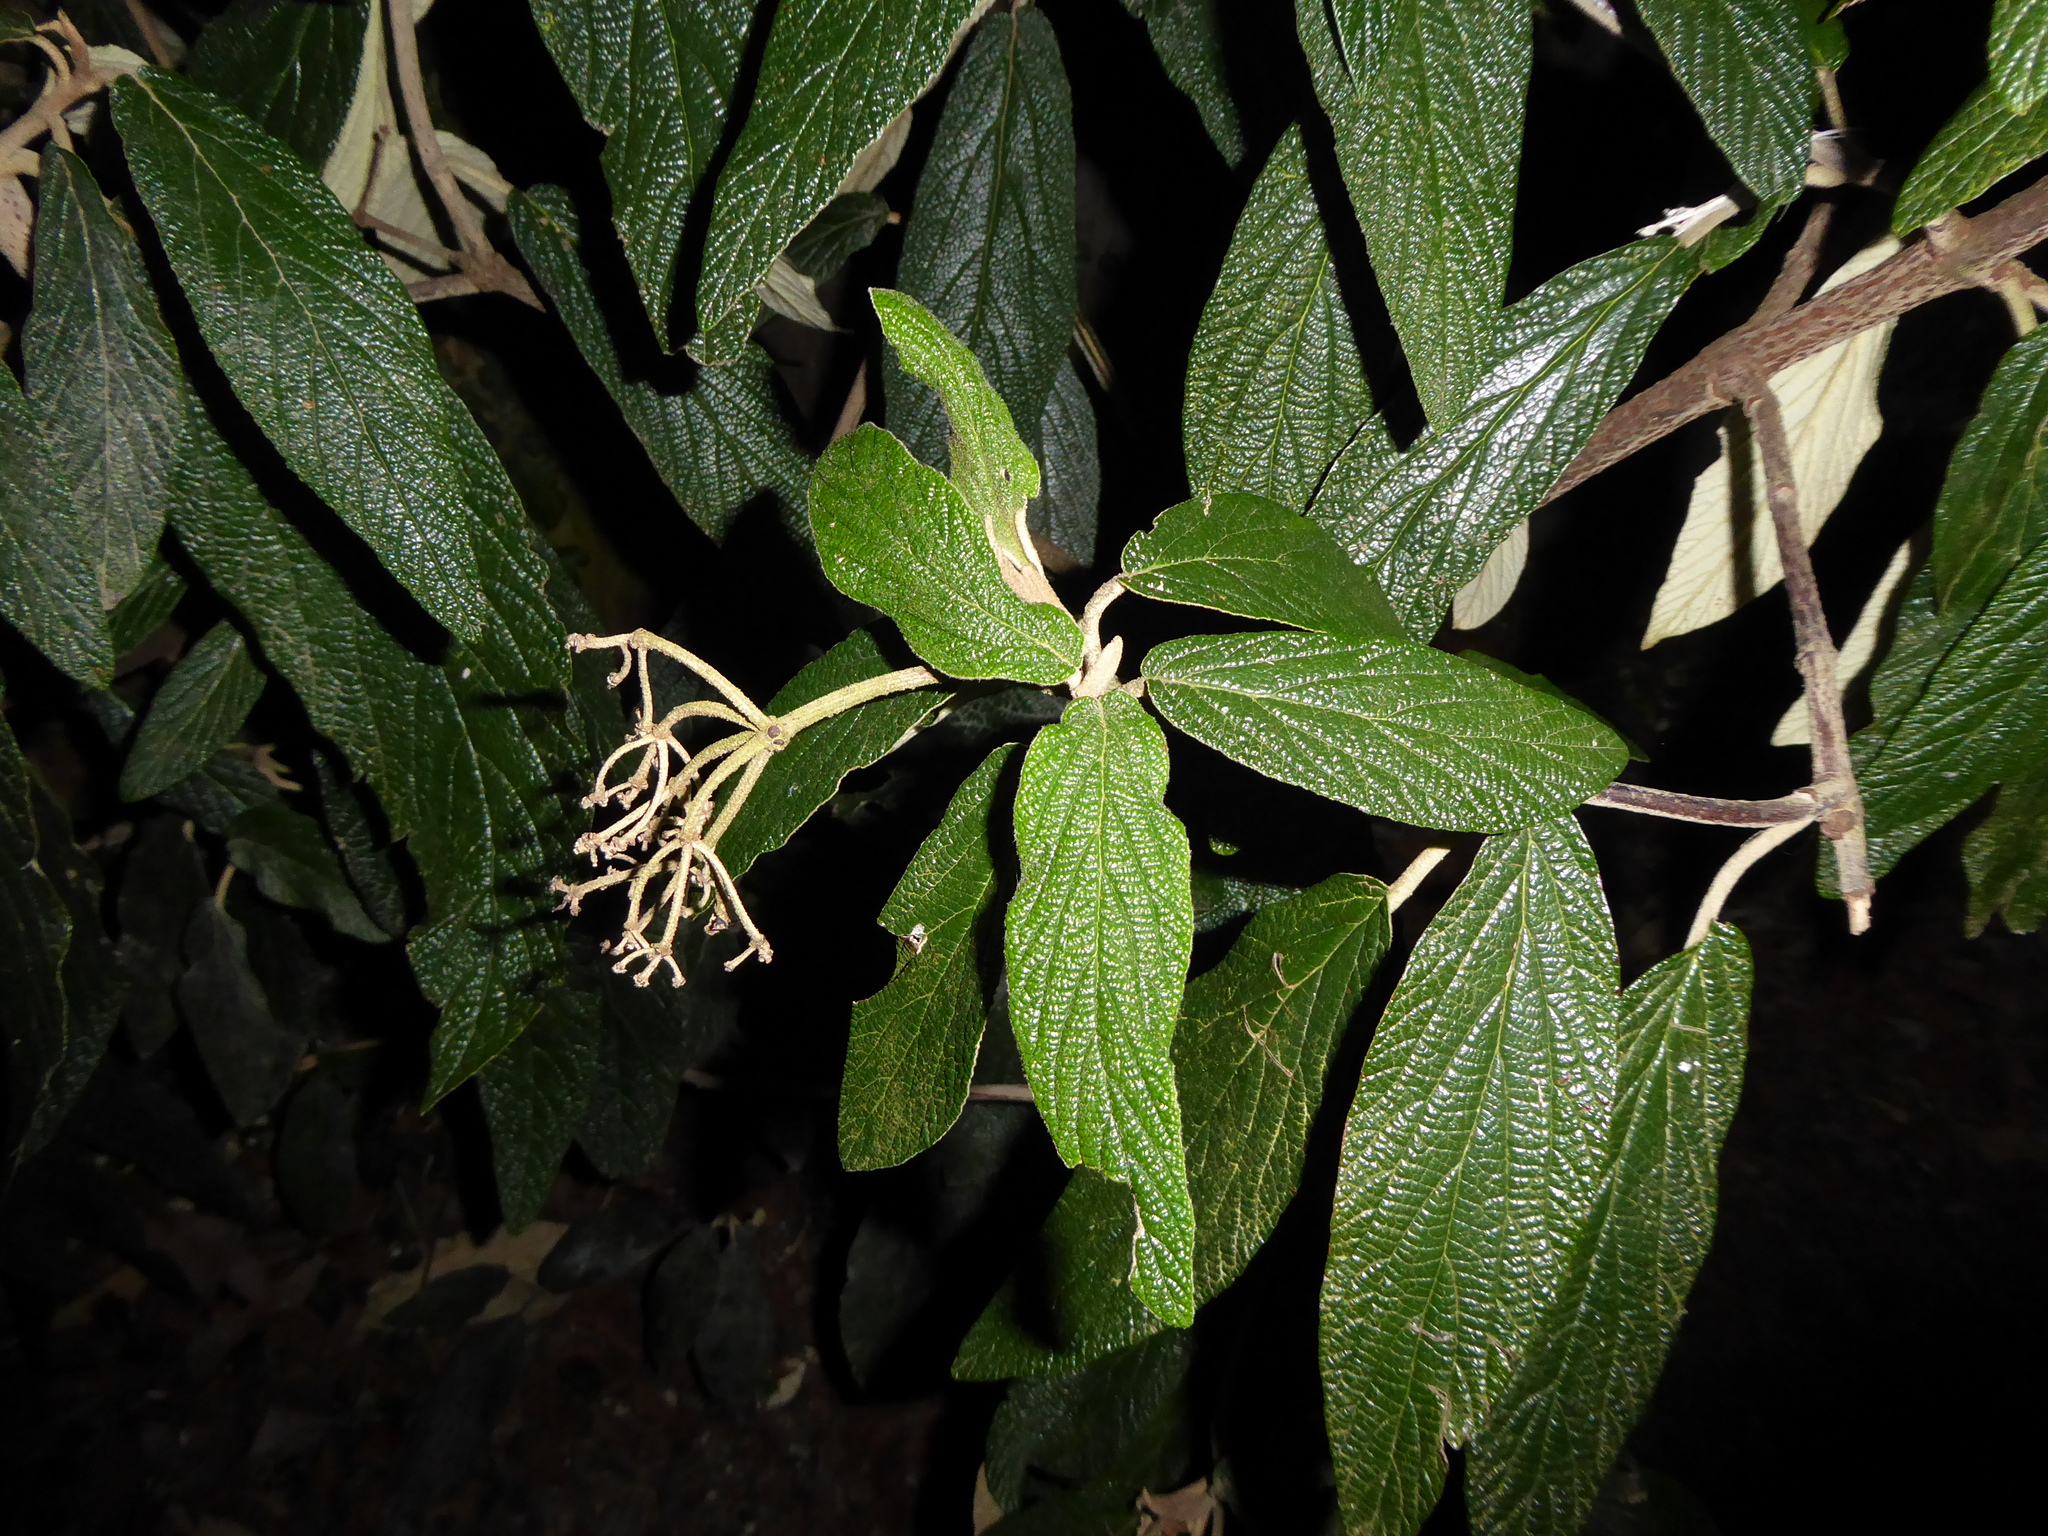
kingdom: Plantae
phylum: Tracheophyta
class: Magnoliopsida
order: Dipsacales
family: Viburnaceae
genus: Viburnum
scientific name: Viburnum rhytidophyllum
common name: Wrinkled viburnum
